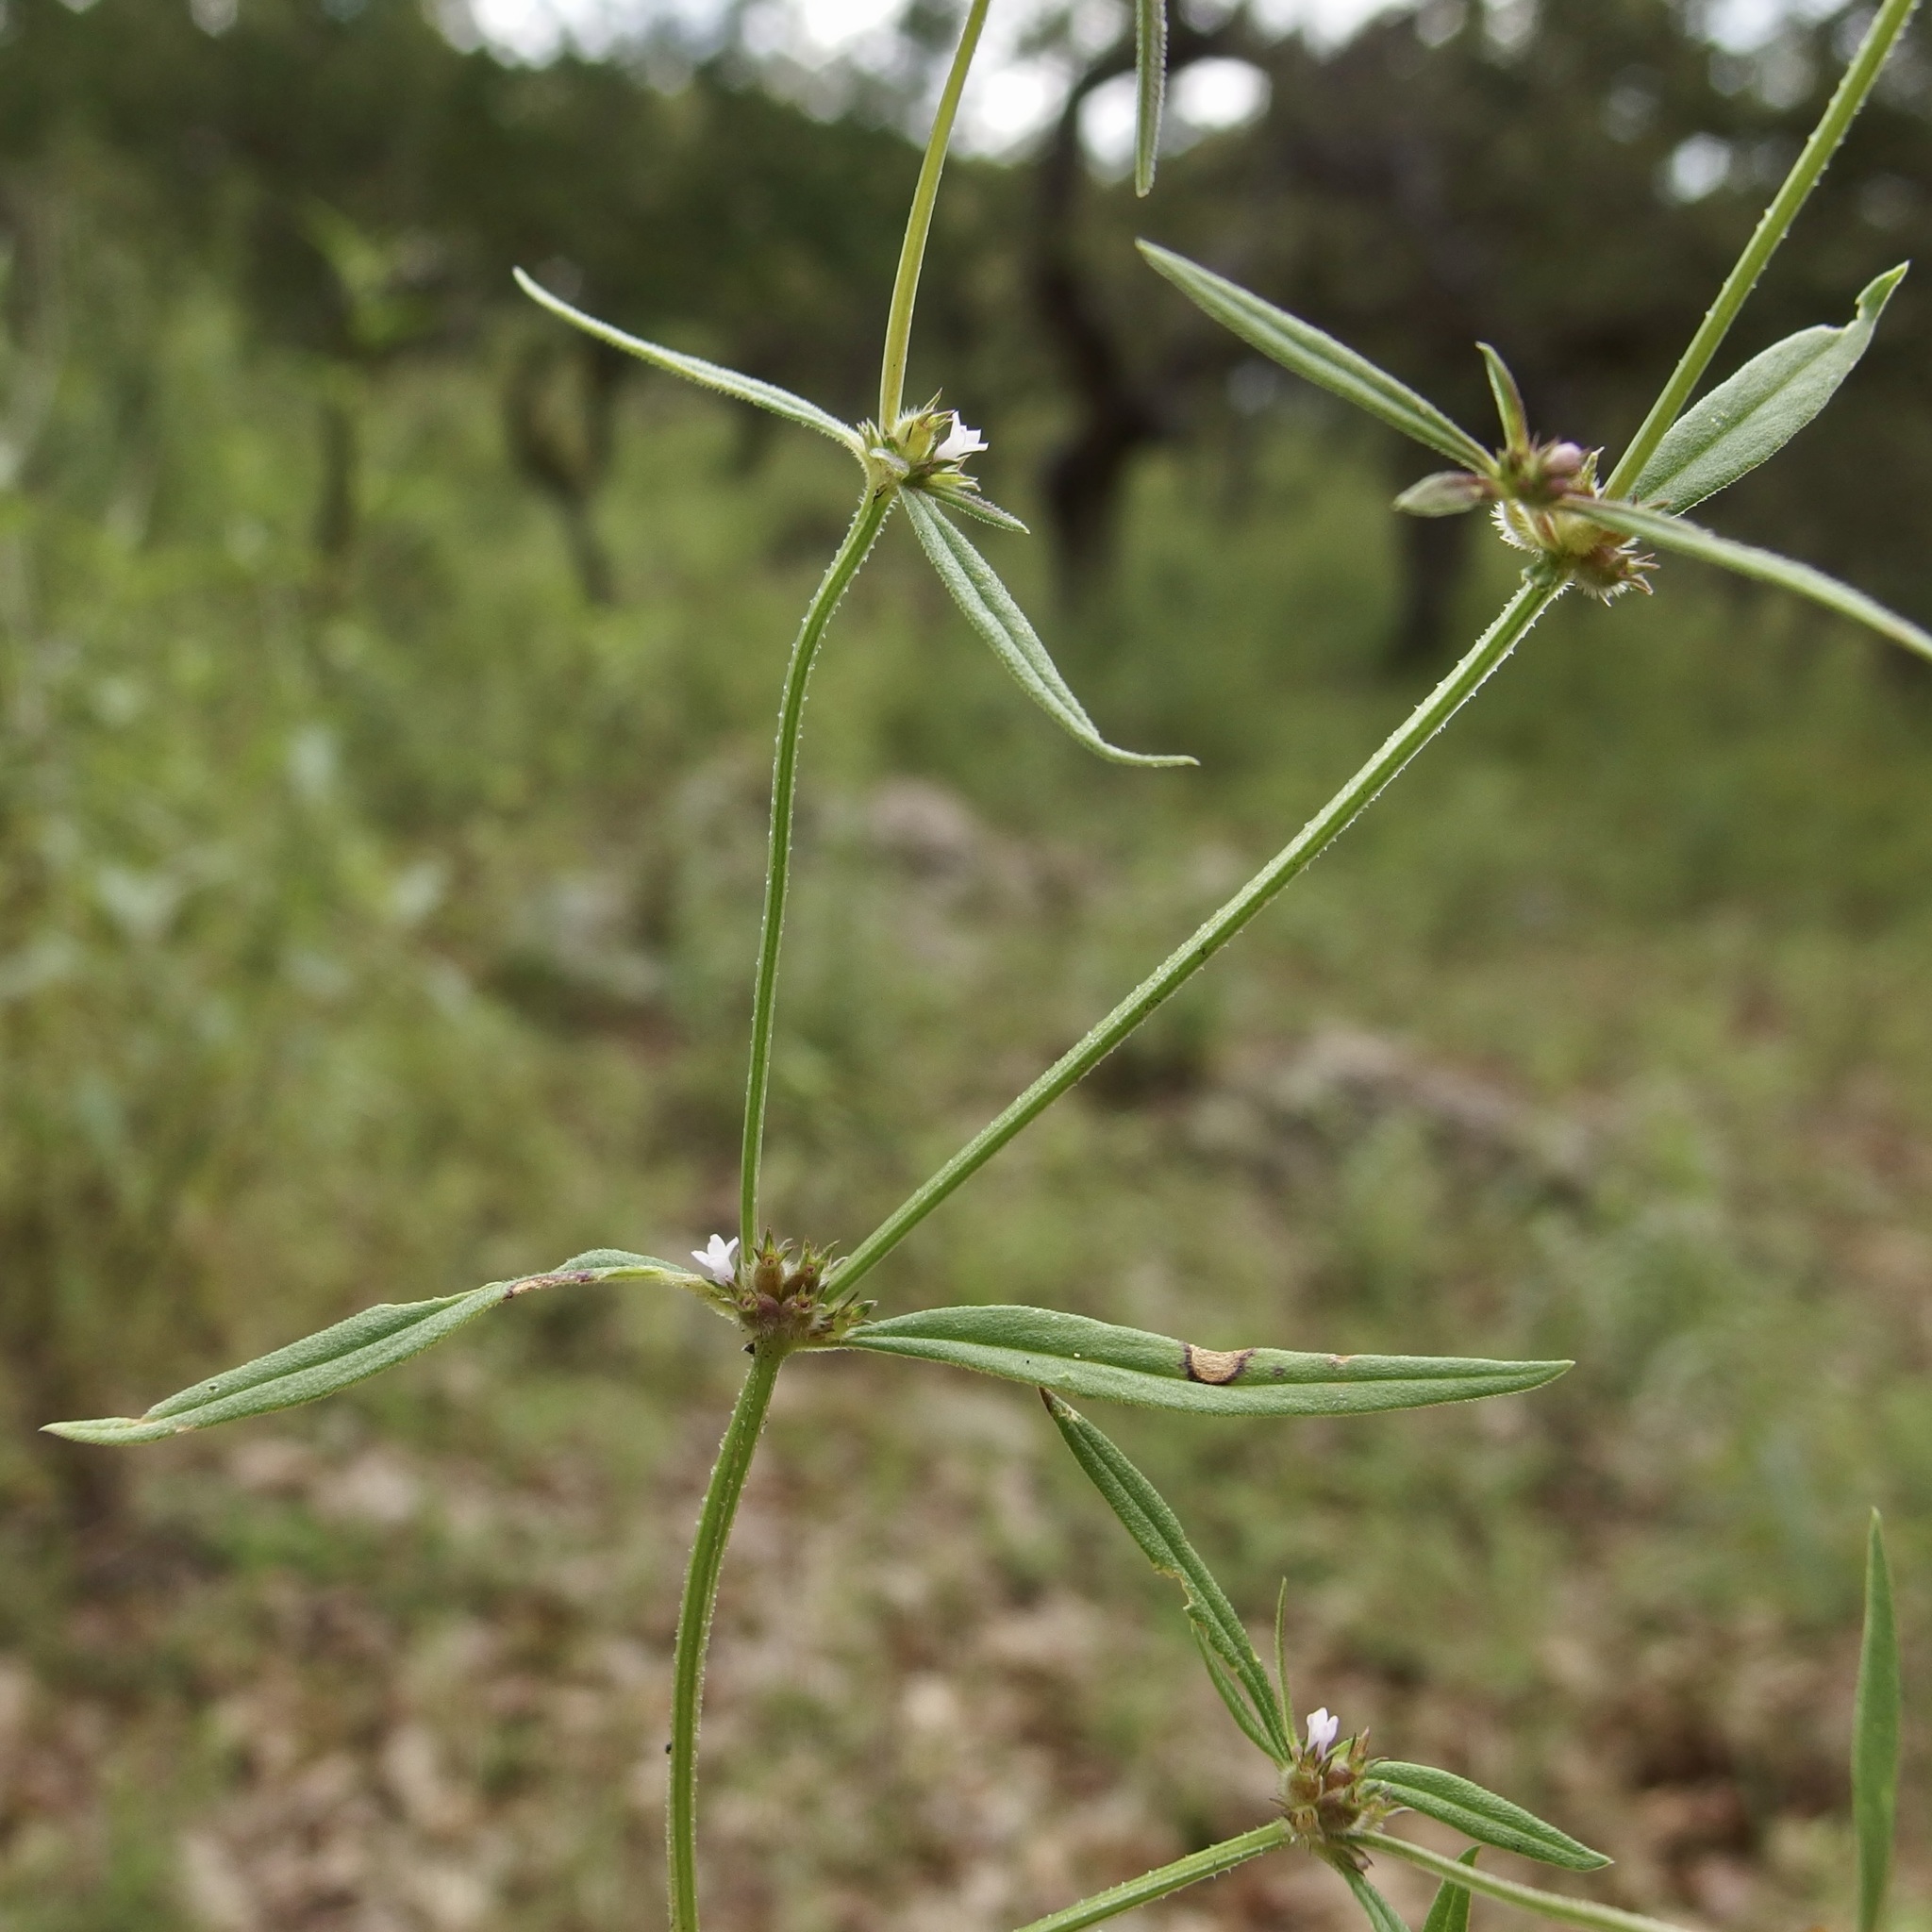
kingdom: Plantae
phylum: Tracheophyta
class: Magnoliopsida
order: Gentianales
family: Rubiaceae
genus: Spermacoce
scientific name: Spermacoce confusa
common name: Iron-grass
